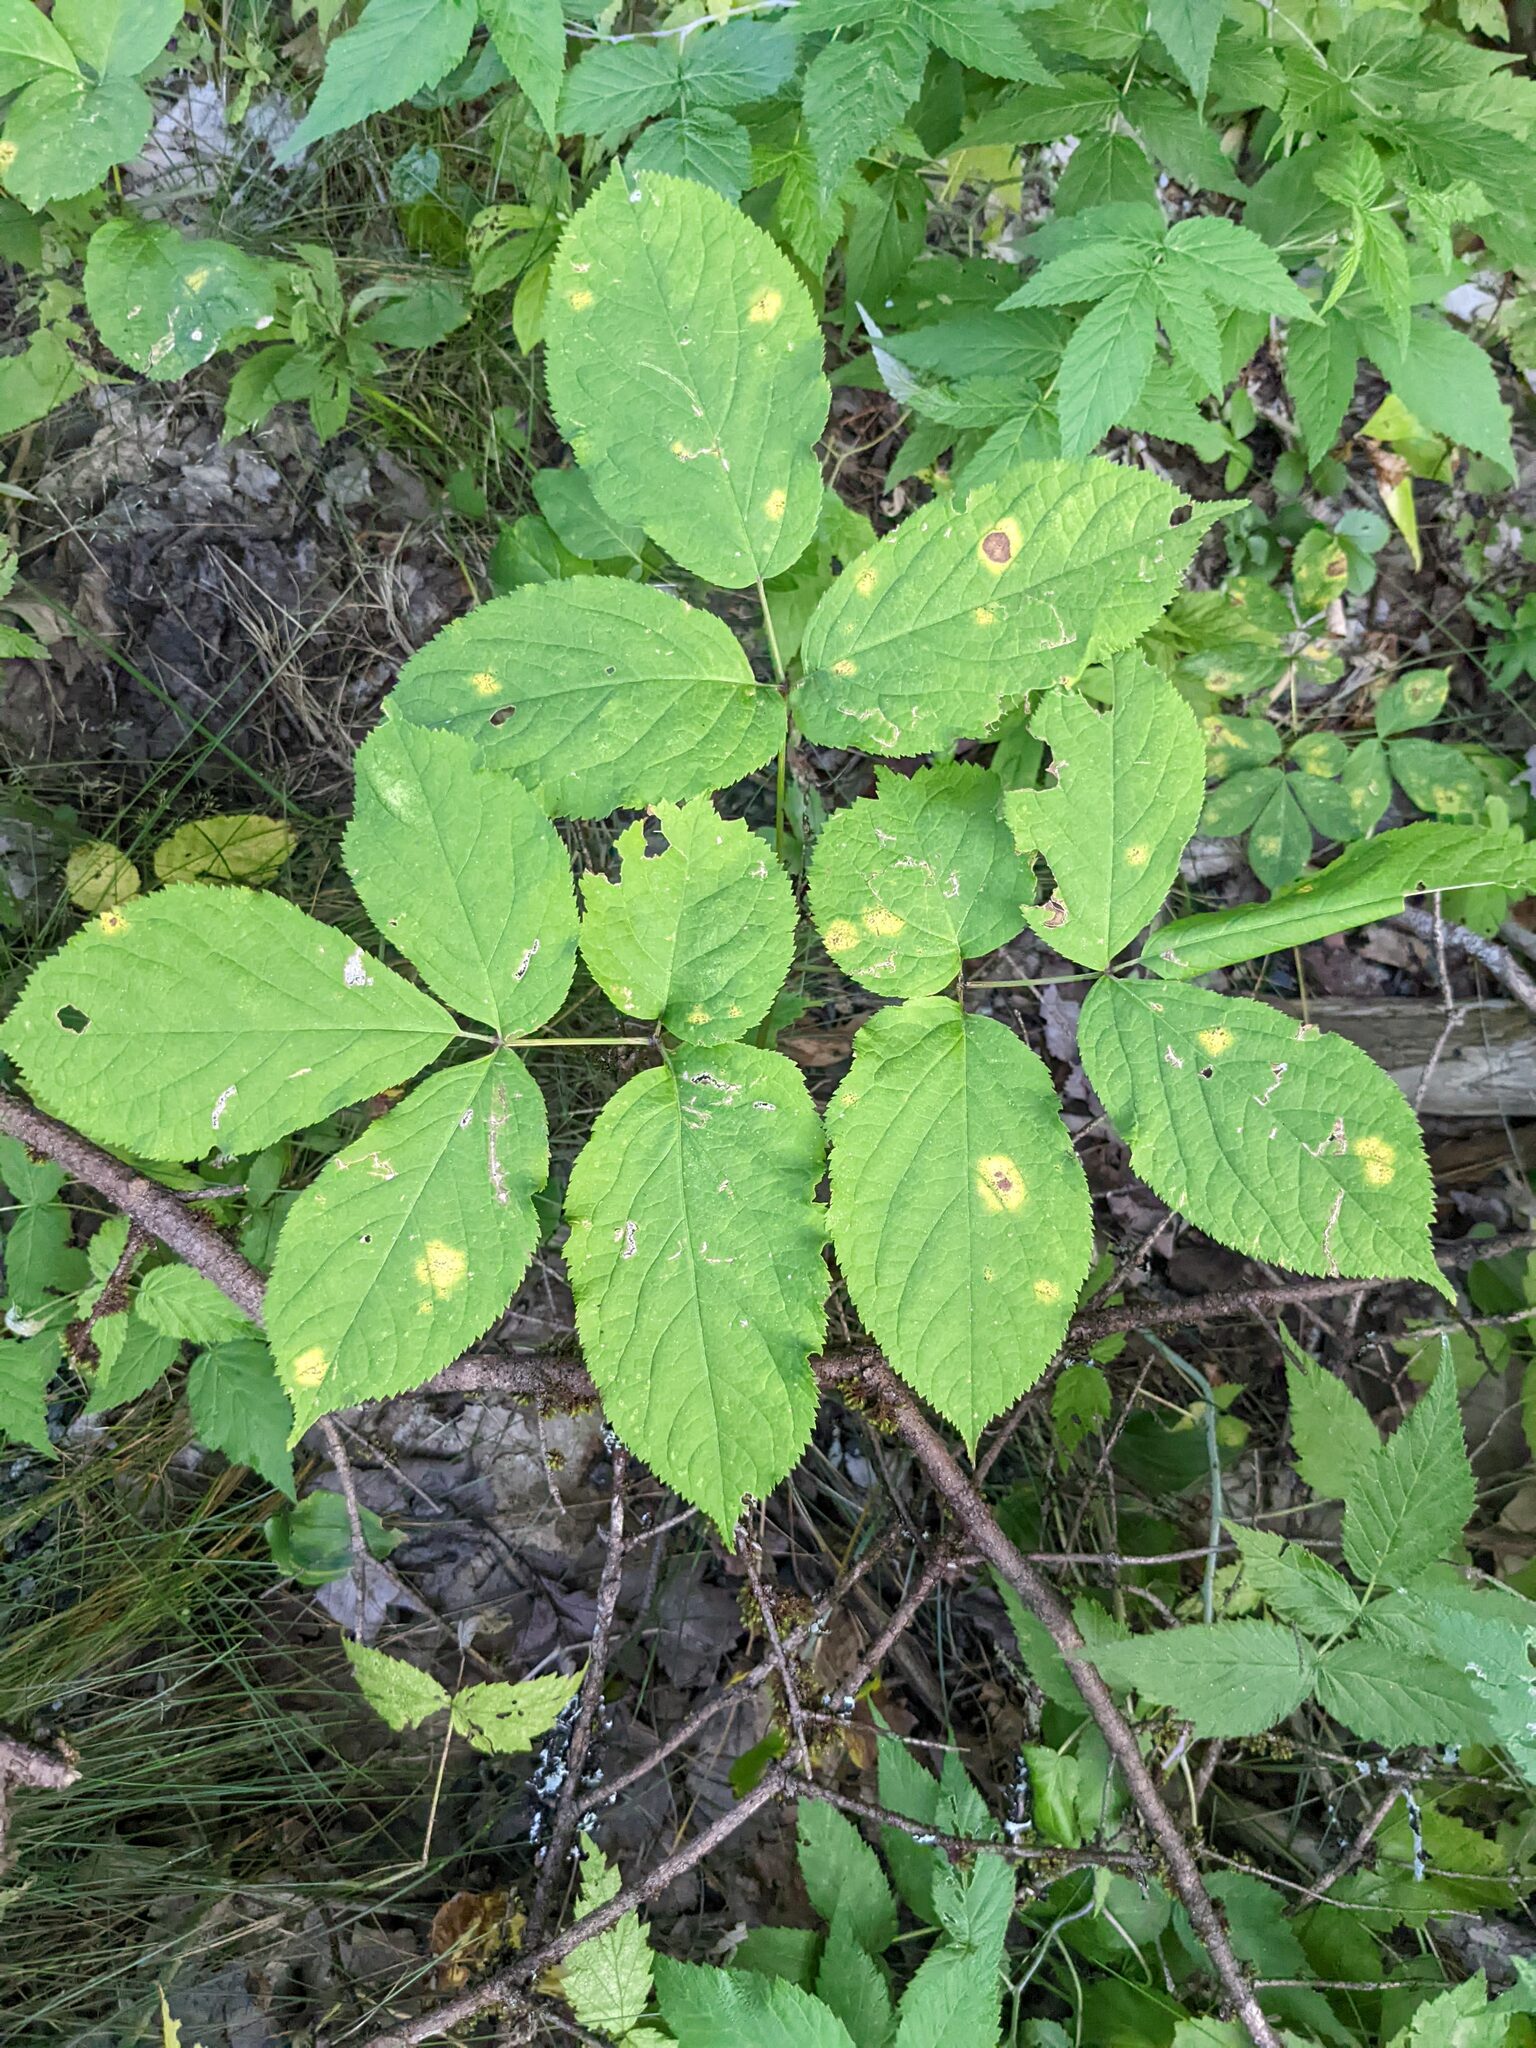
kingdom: Plantae
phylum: Tracheophyta
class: Magnoliopsida
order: Apiales
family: Araliaceae
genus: Aralia
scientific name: Aralia nudicaulis
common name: Wild sarsaparilla
